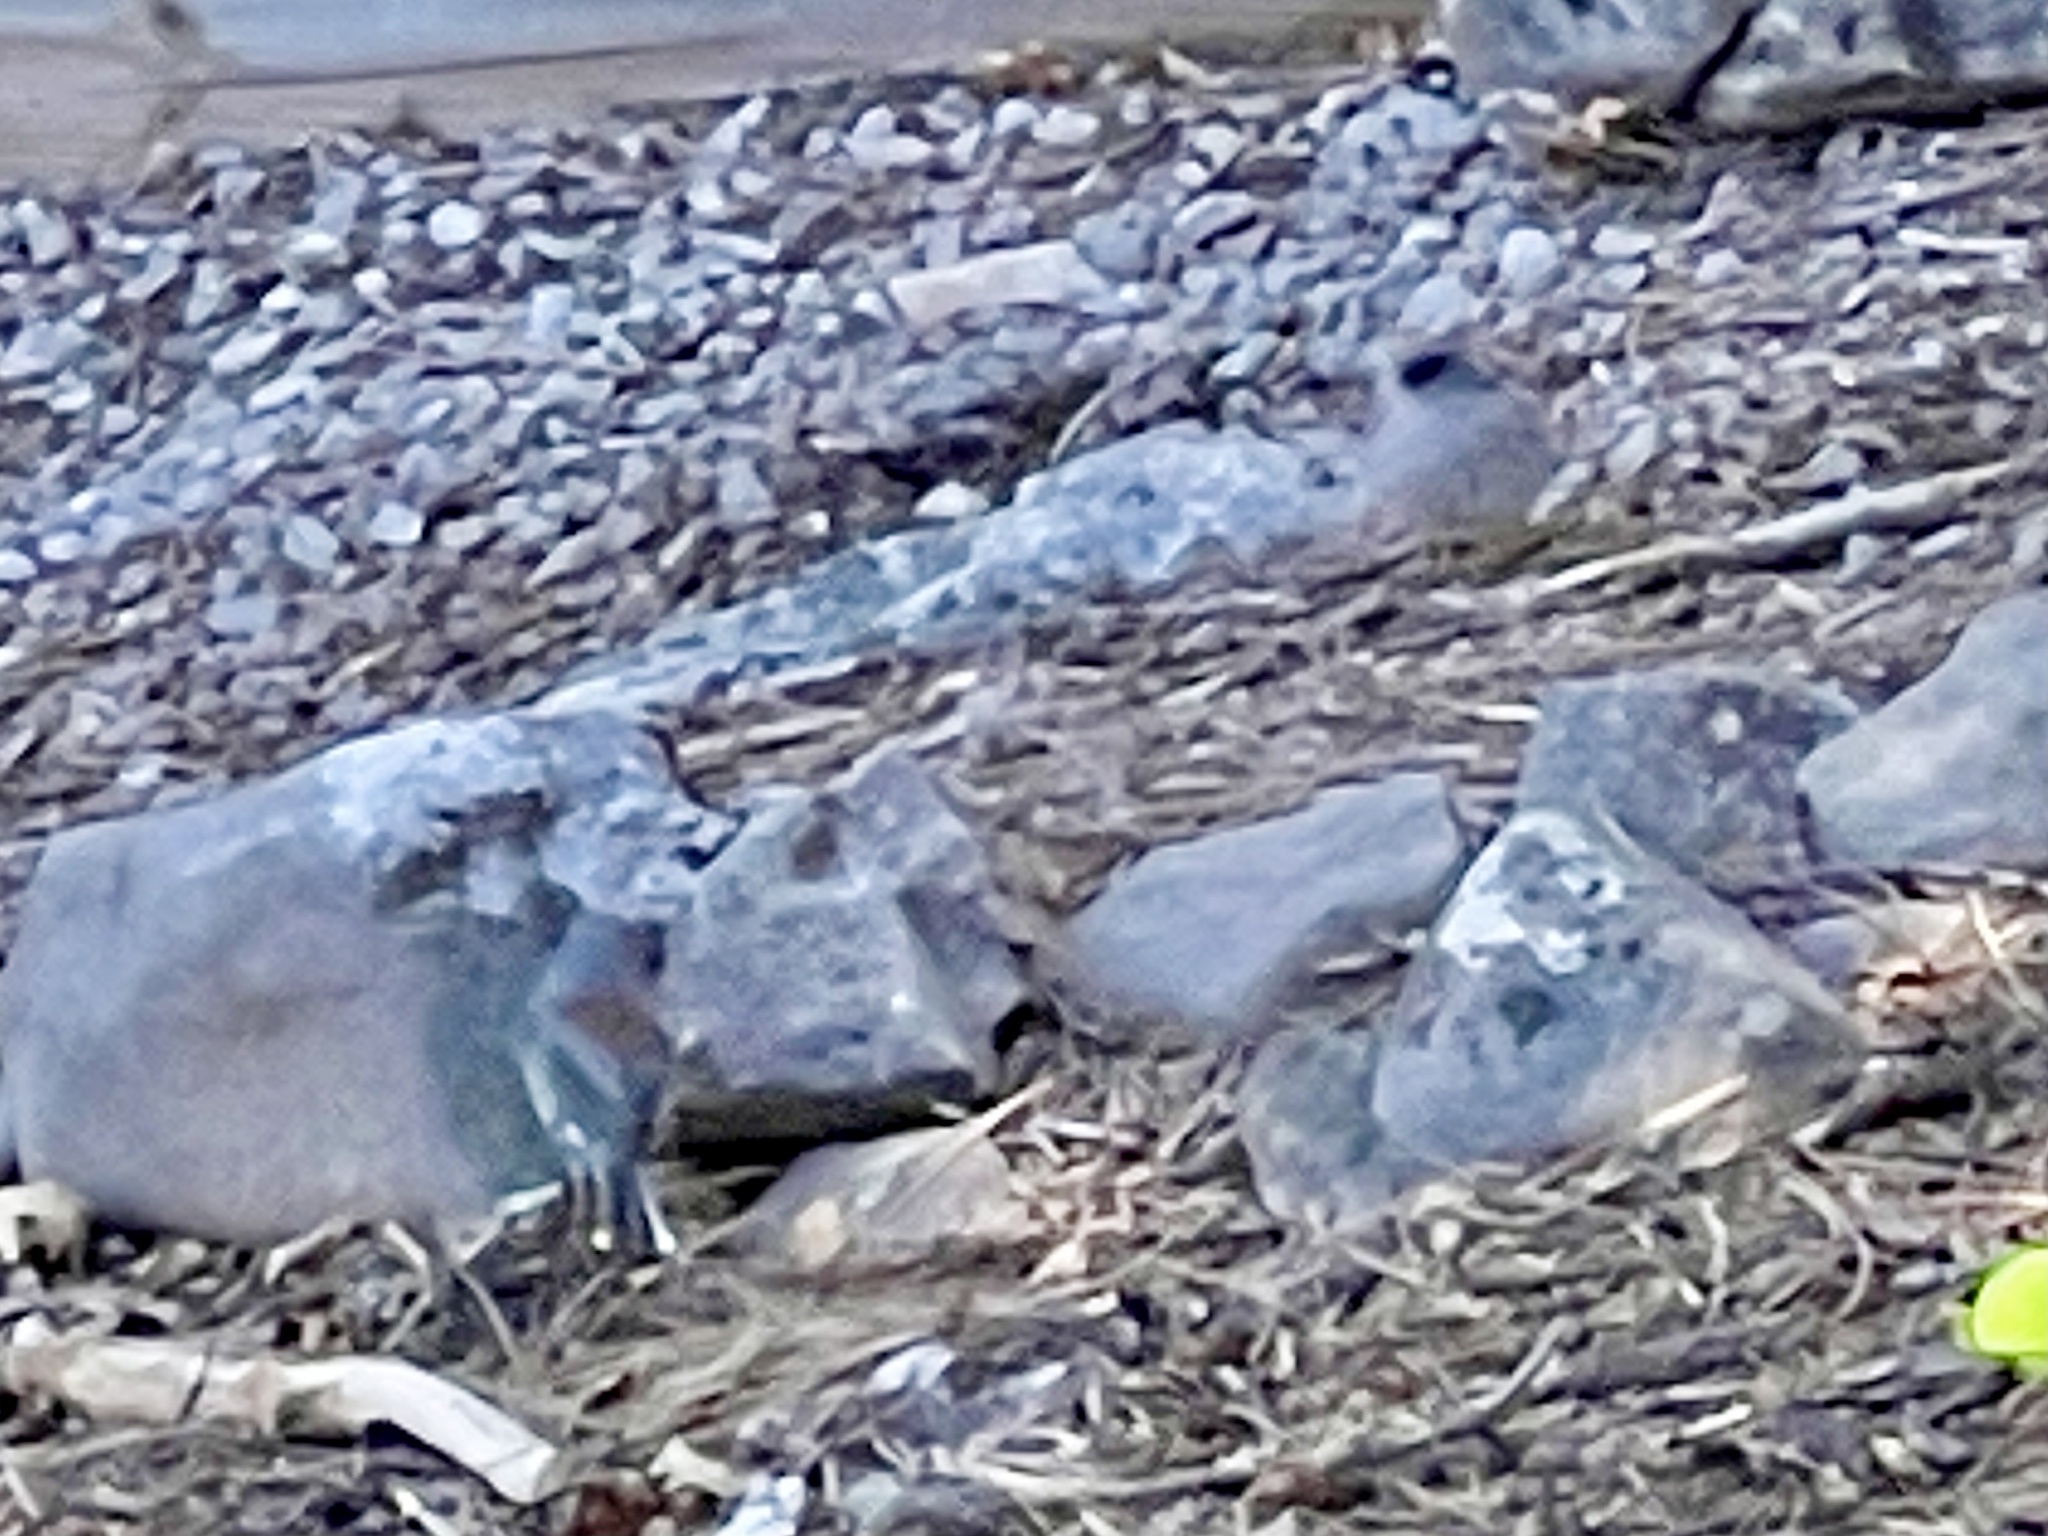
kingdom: Animalia
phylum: Chordata
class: Aves
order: Passeriformes
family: Passerellidae
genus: Junco
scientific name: Junco hyemalis
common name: Dark-eyed junco
